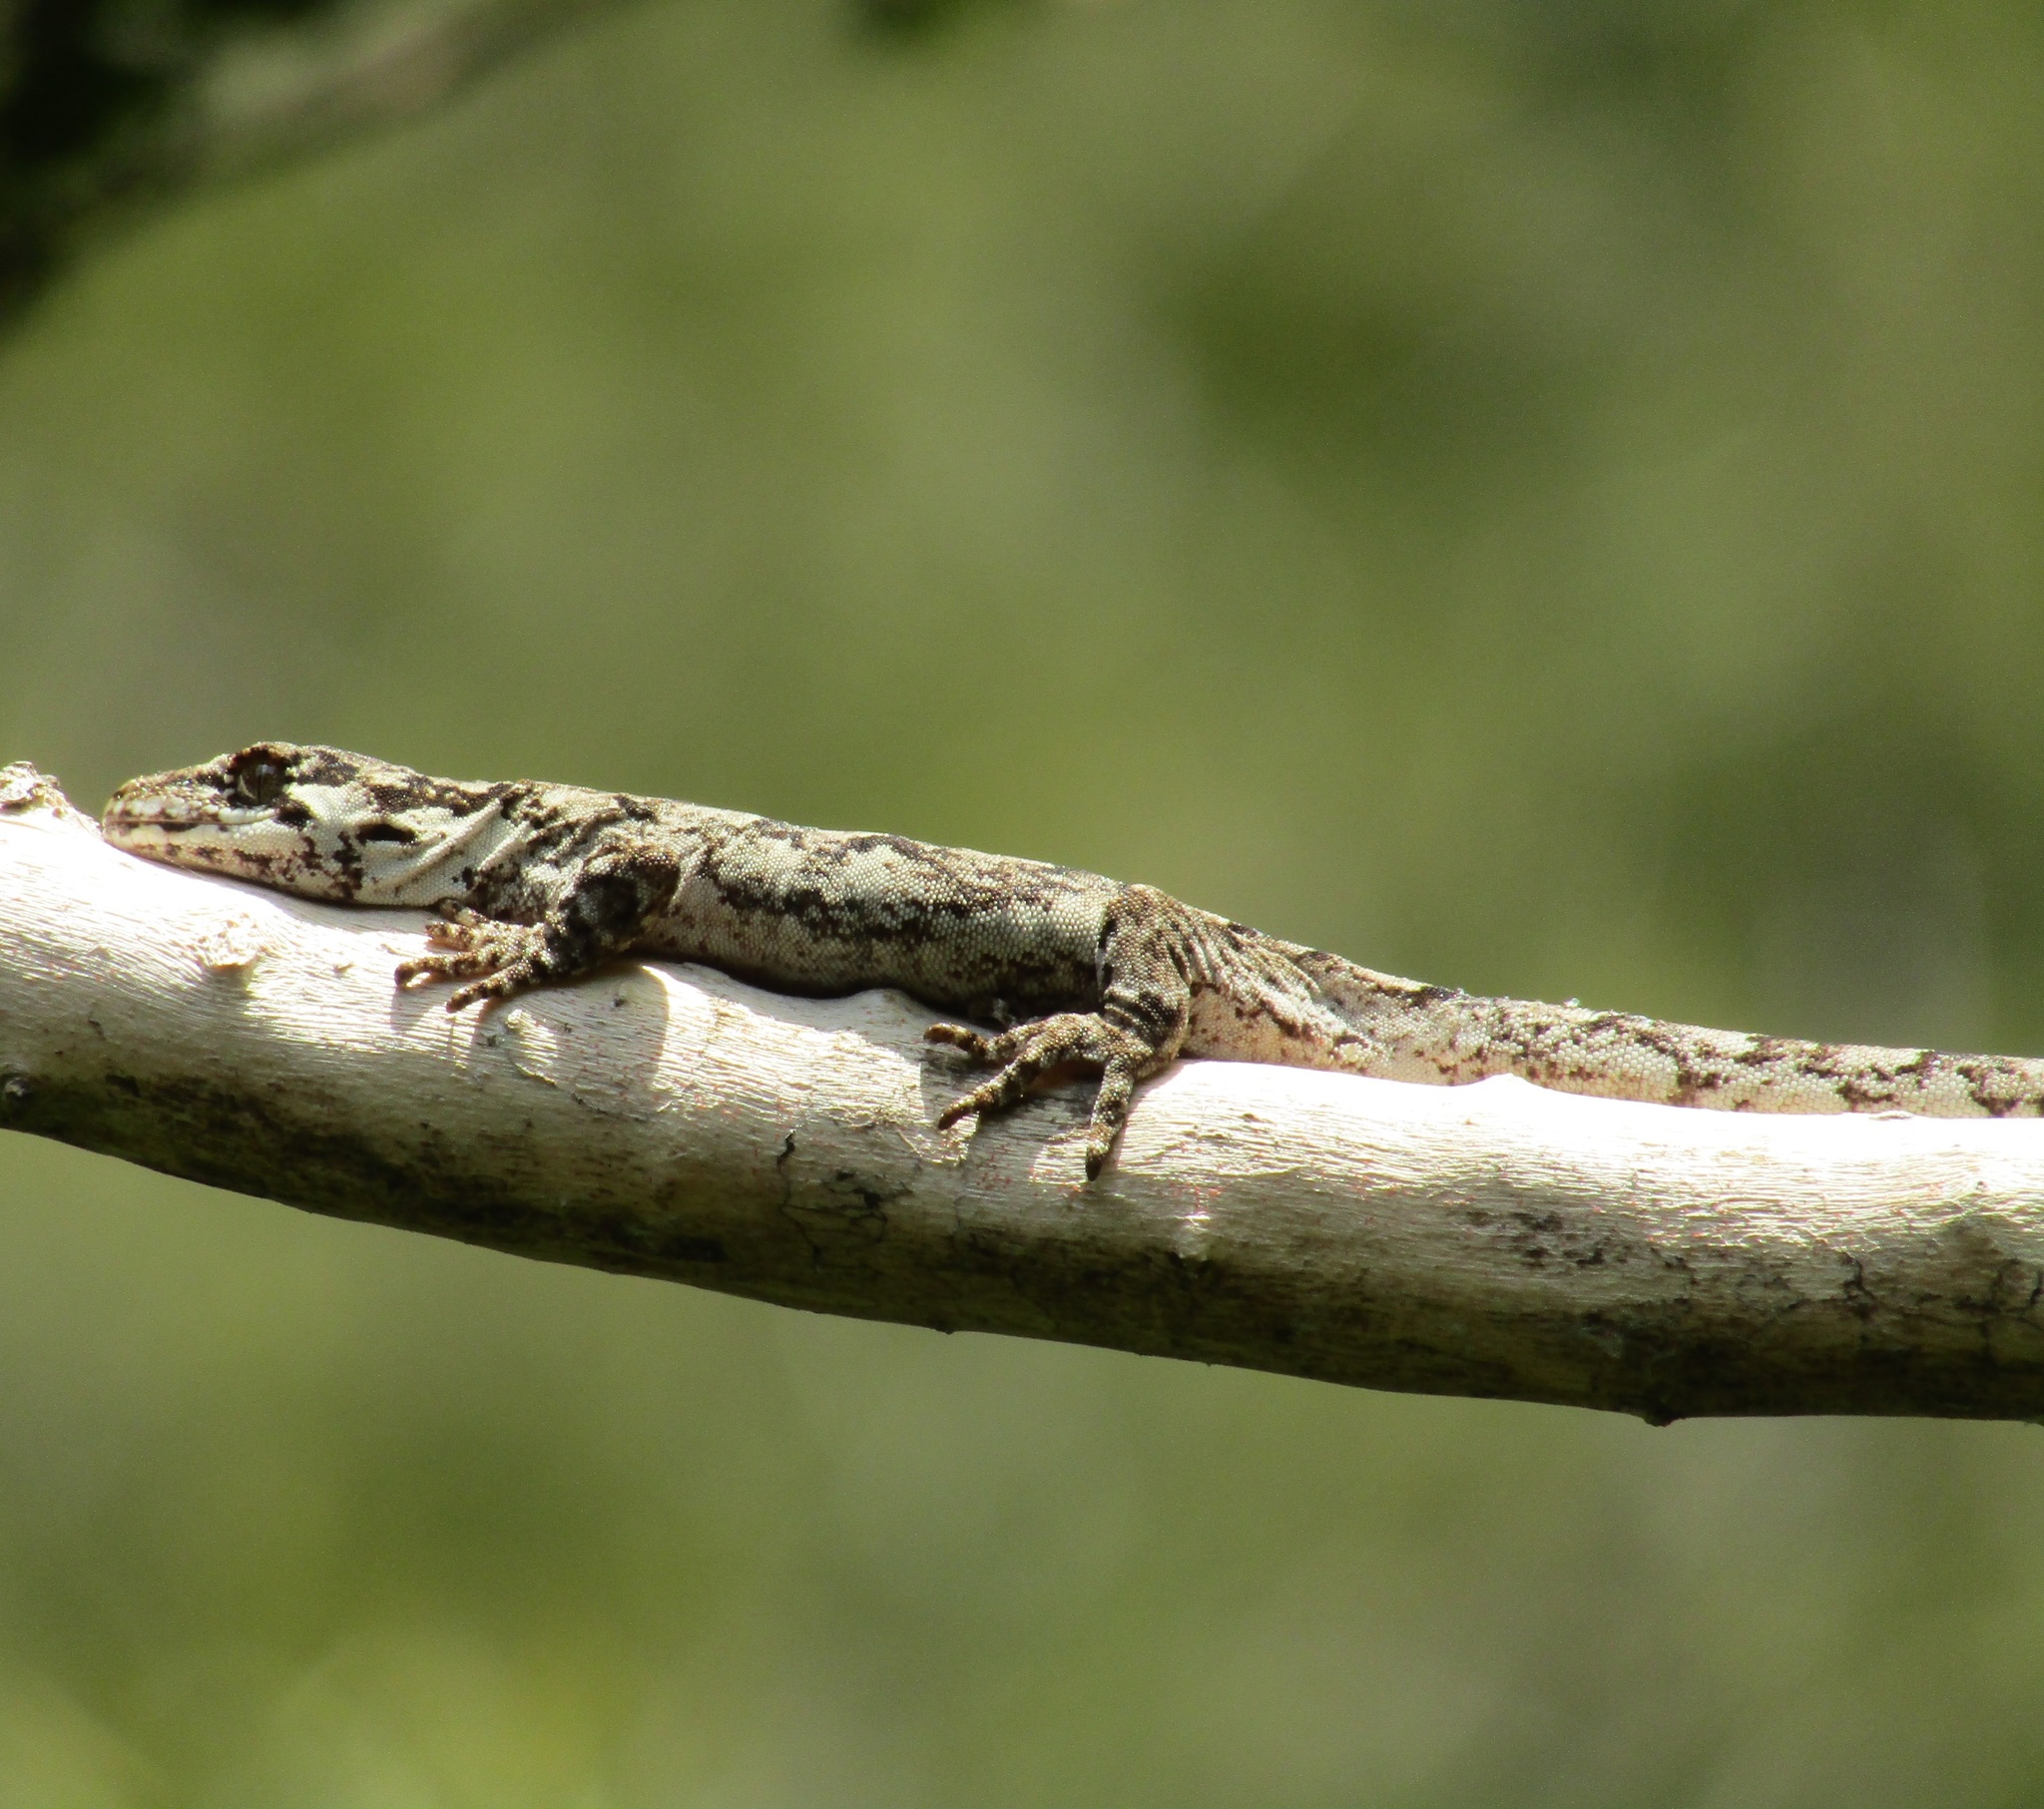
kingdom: Animalia
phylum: Chordata
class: Squamata
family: Diplodactylidae
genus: Mokopirirakau
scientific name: Mokopirirakau
